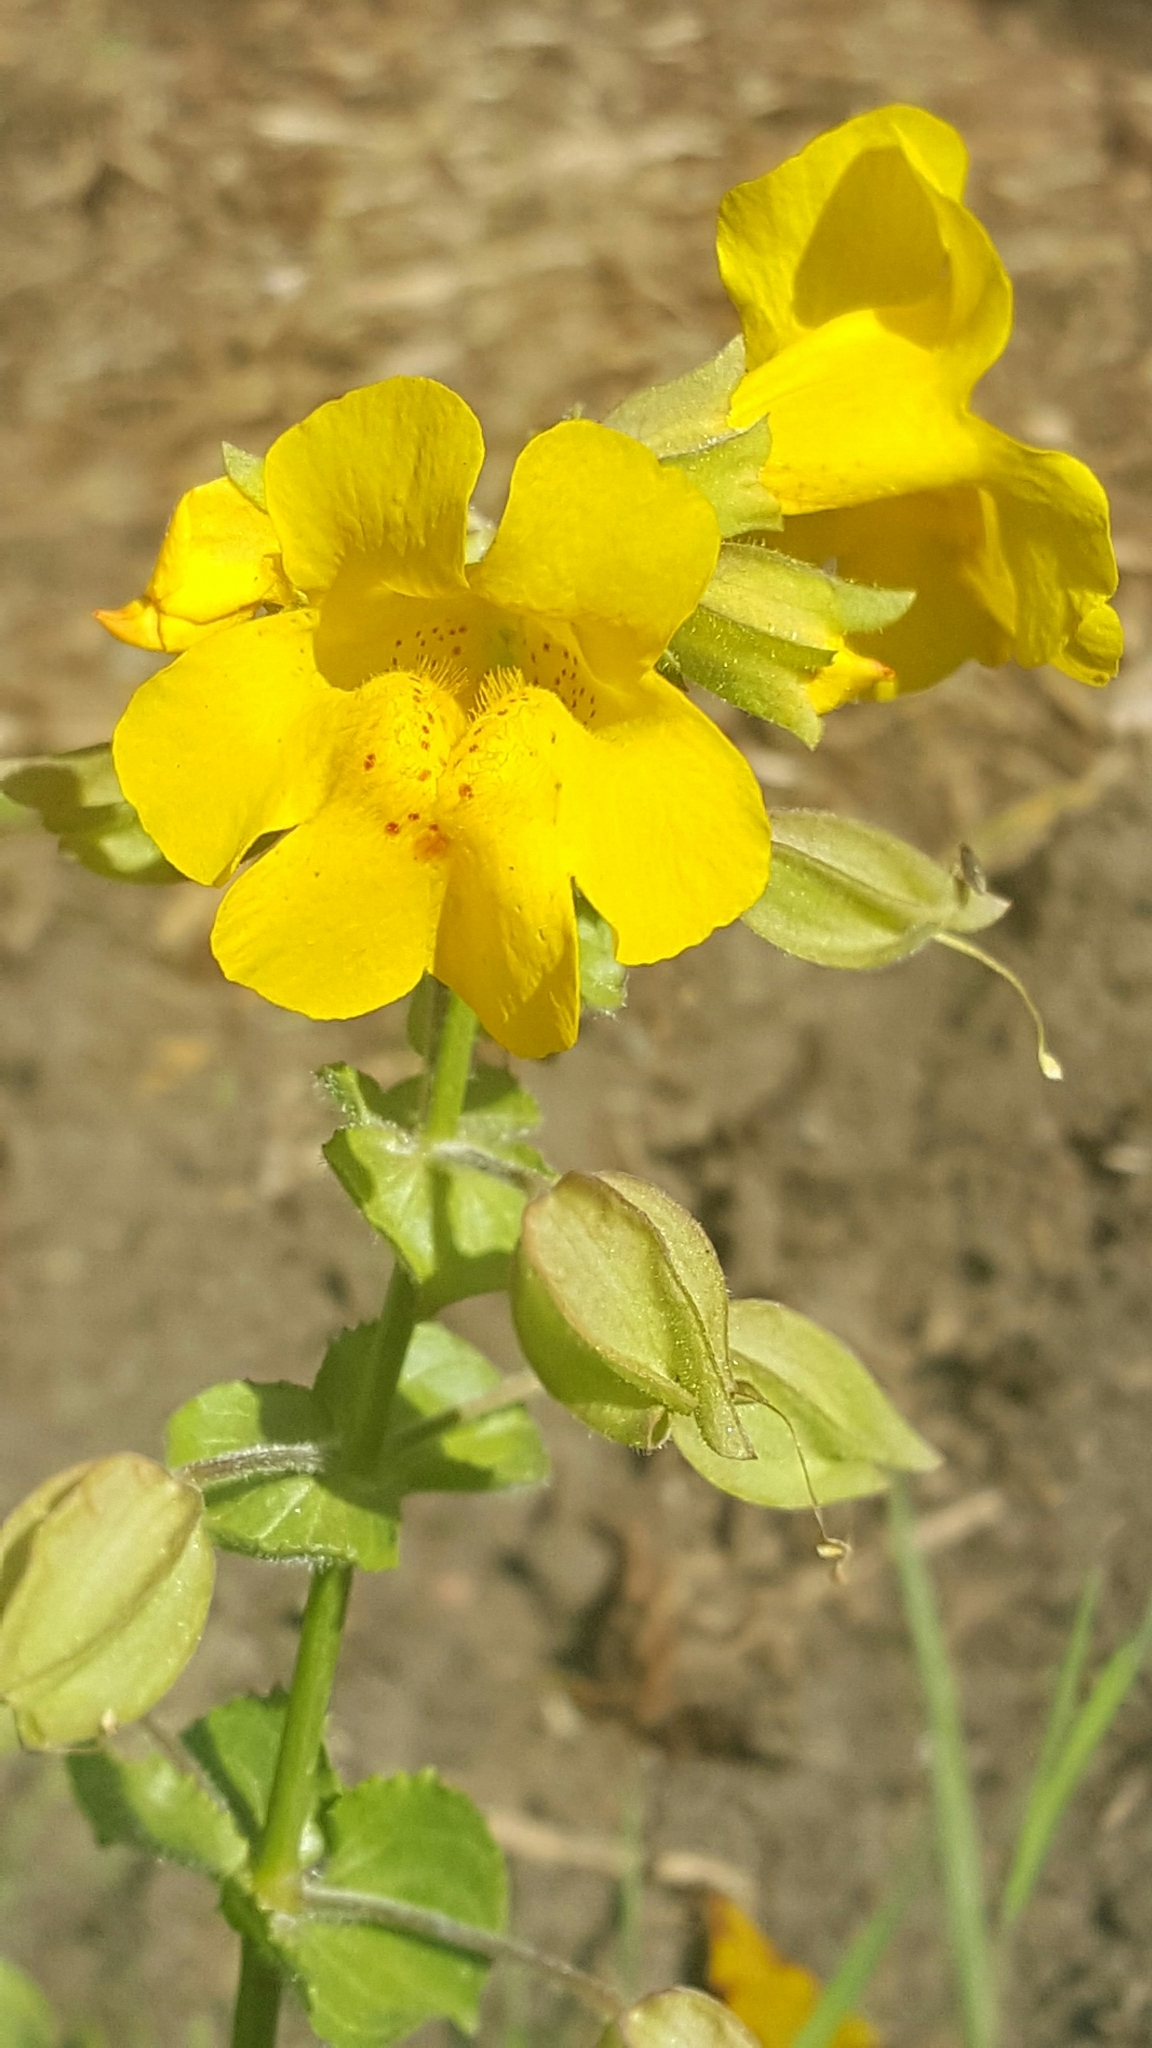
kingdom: Plantae
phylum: Tracheophyta
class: Magnoliopsida
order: Lamiales
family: Phrymaceae
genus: Erythranthe
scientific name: Erythranthe guttata
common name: Monkeyflower
